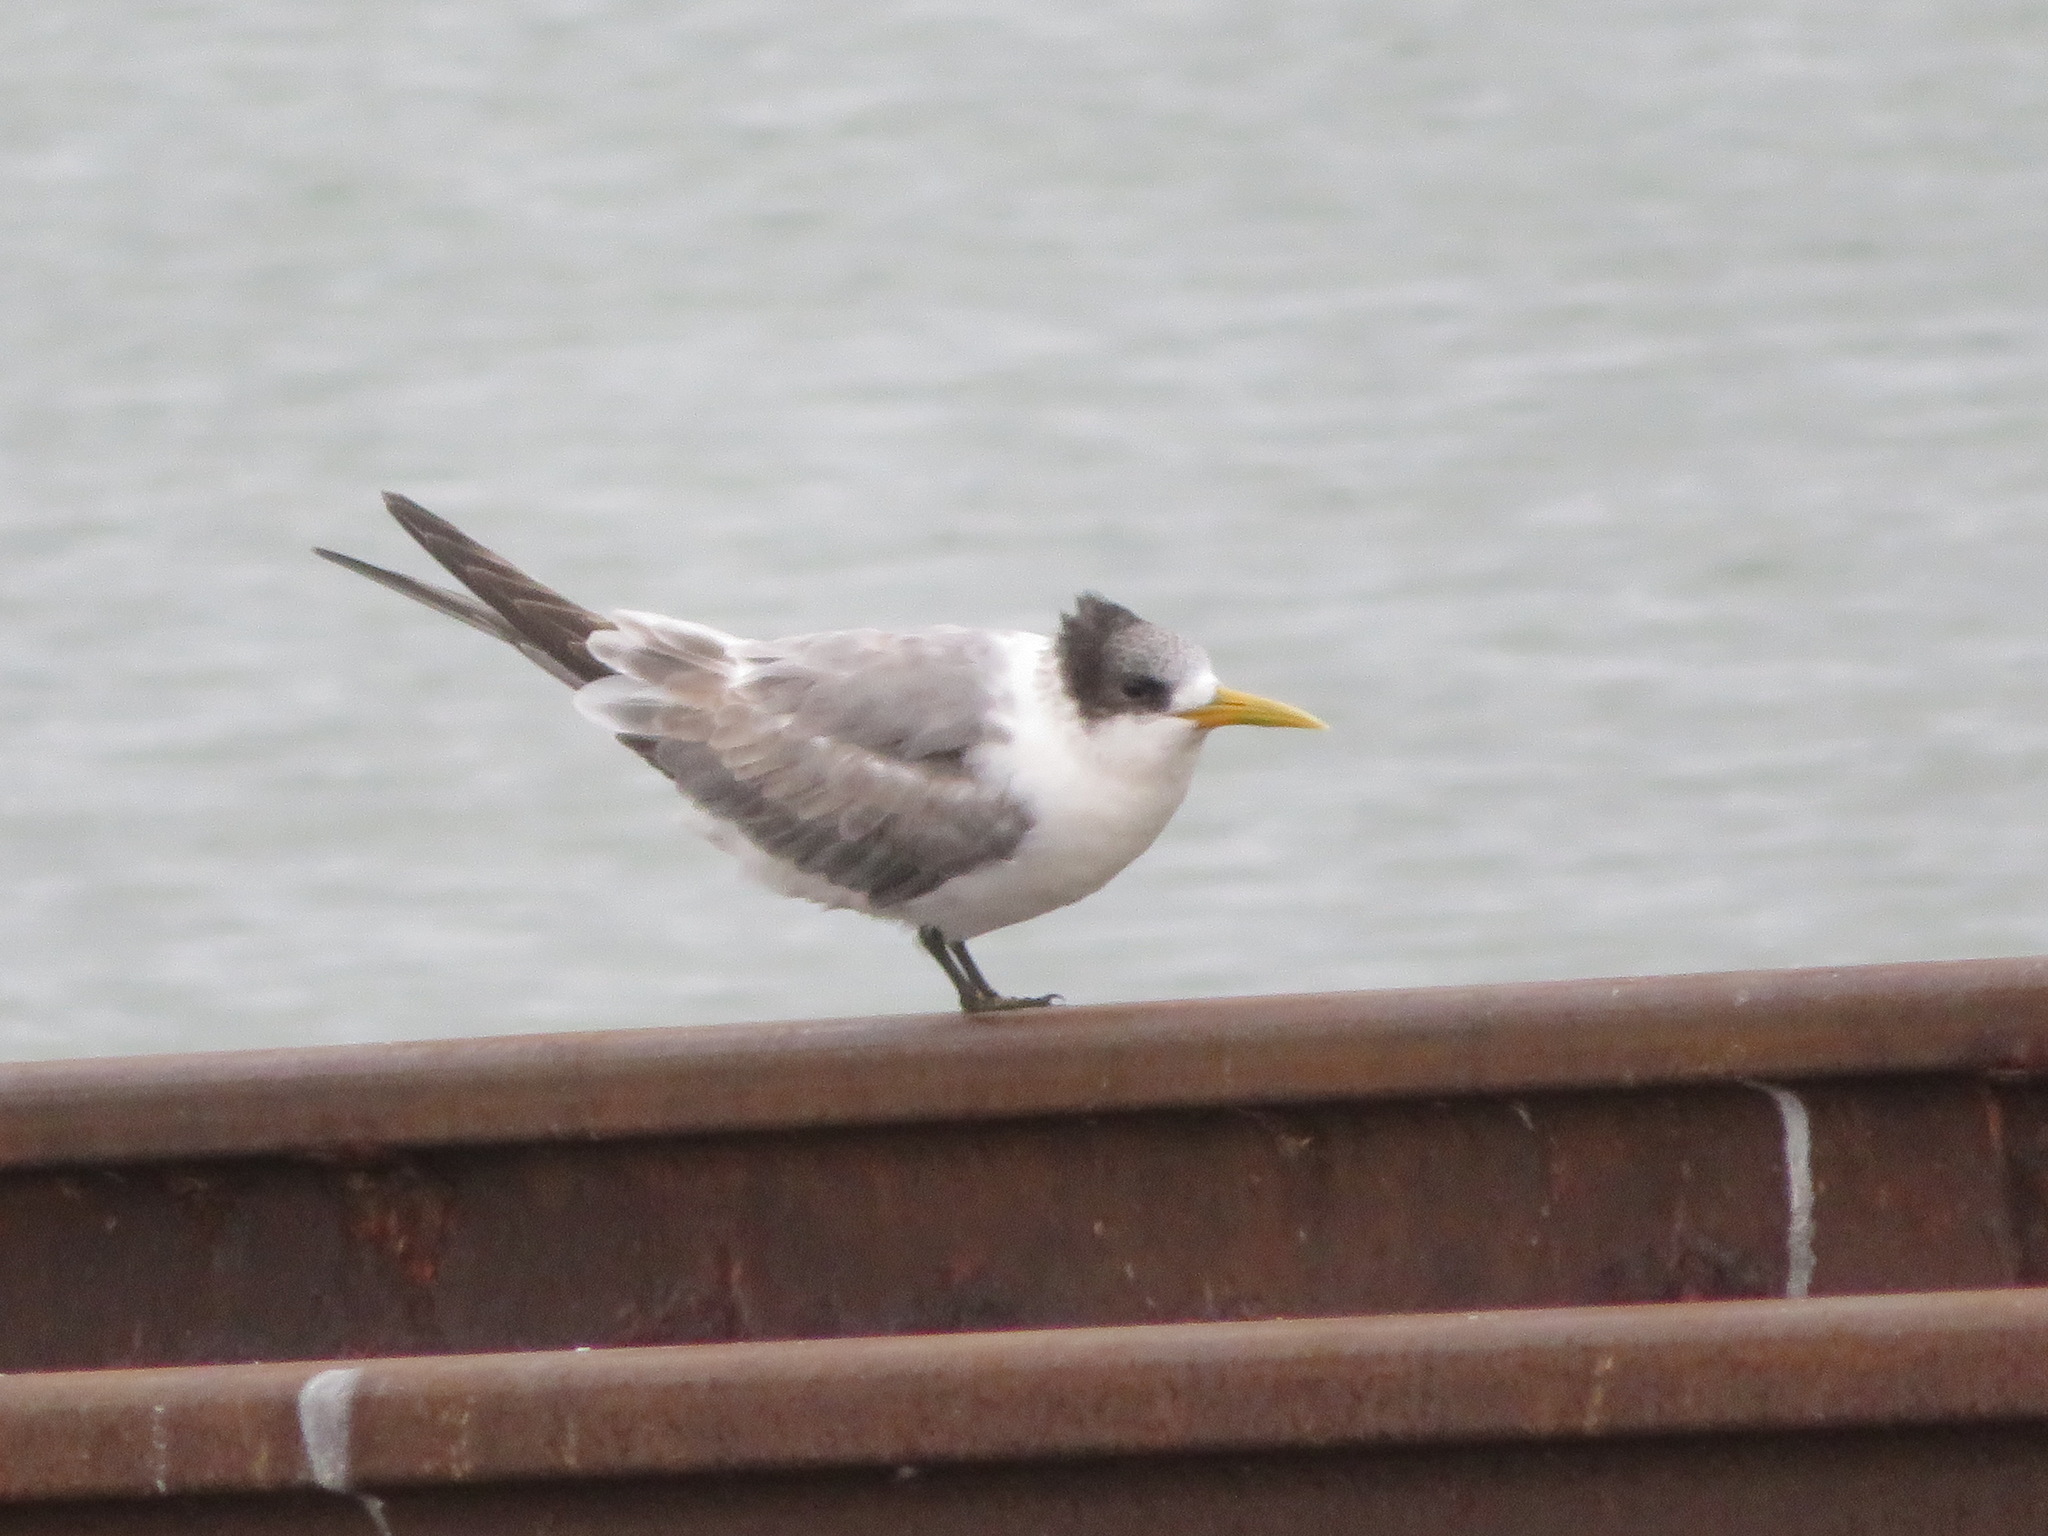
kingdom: Animalia
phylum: Chordata
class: Aves
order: Charadriiformes
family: Laridae
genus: Thalasseus
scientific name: Thalasseus bergii
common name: Greater crested tern
